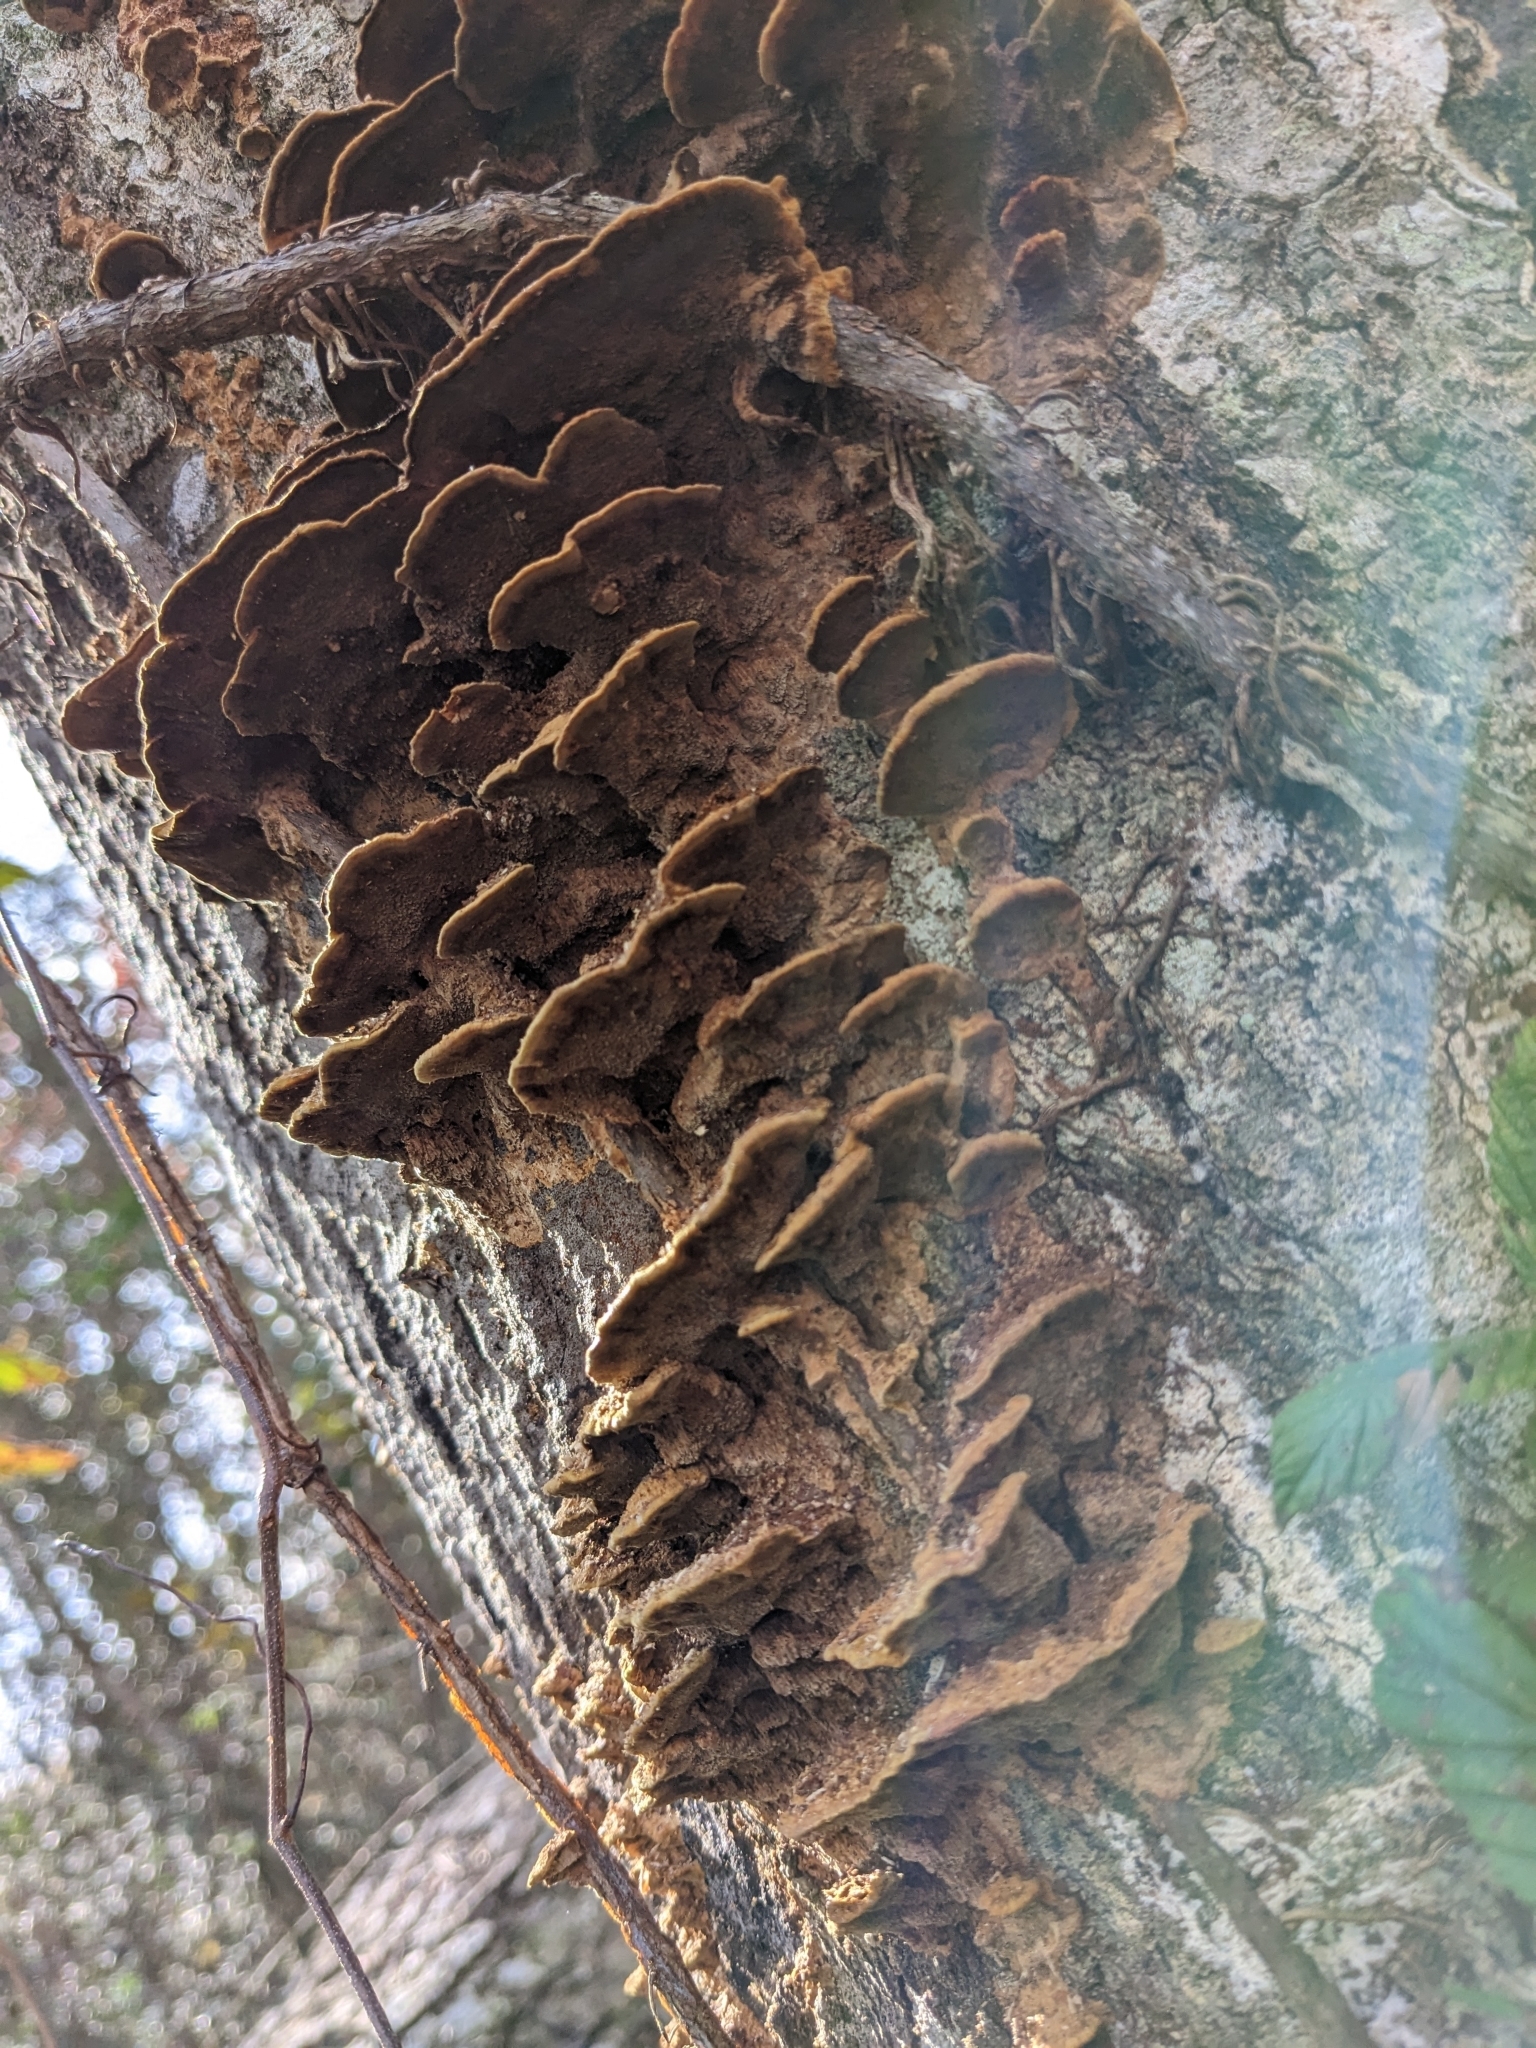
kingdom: Fungi
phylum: Basidiomycota
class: Agaricomycetes
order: Hymenochaetales
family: Hymenochaetaceae
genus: Phellinus
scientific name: Phellinus gilvus
